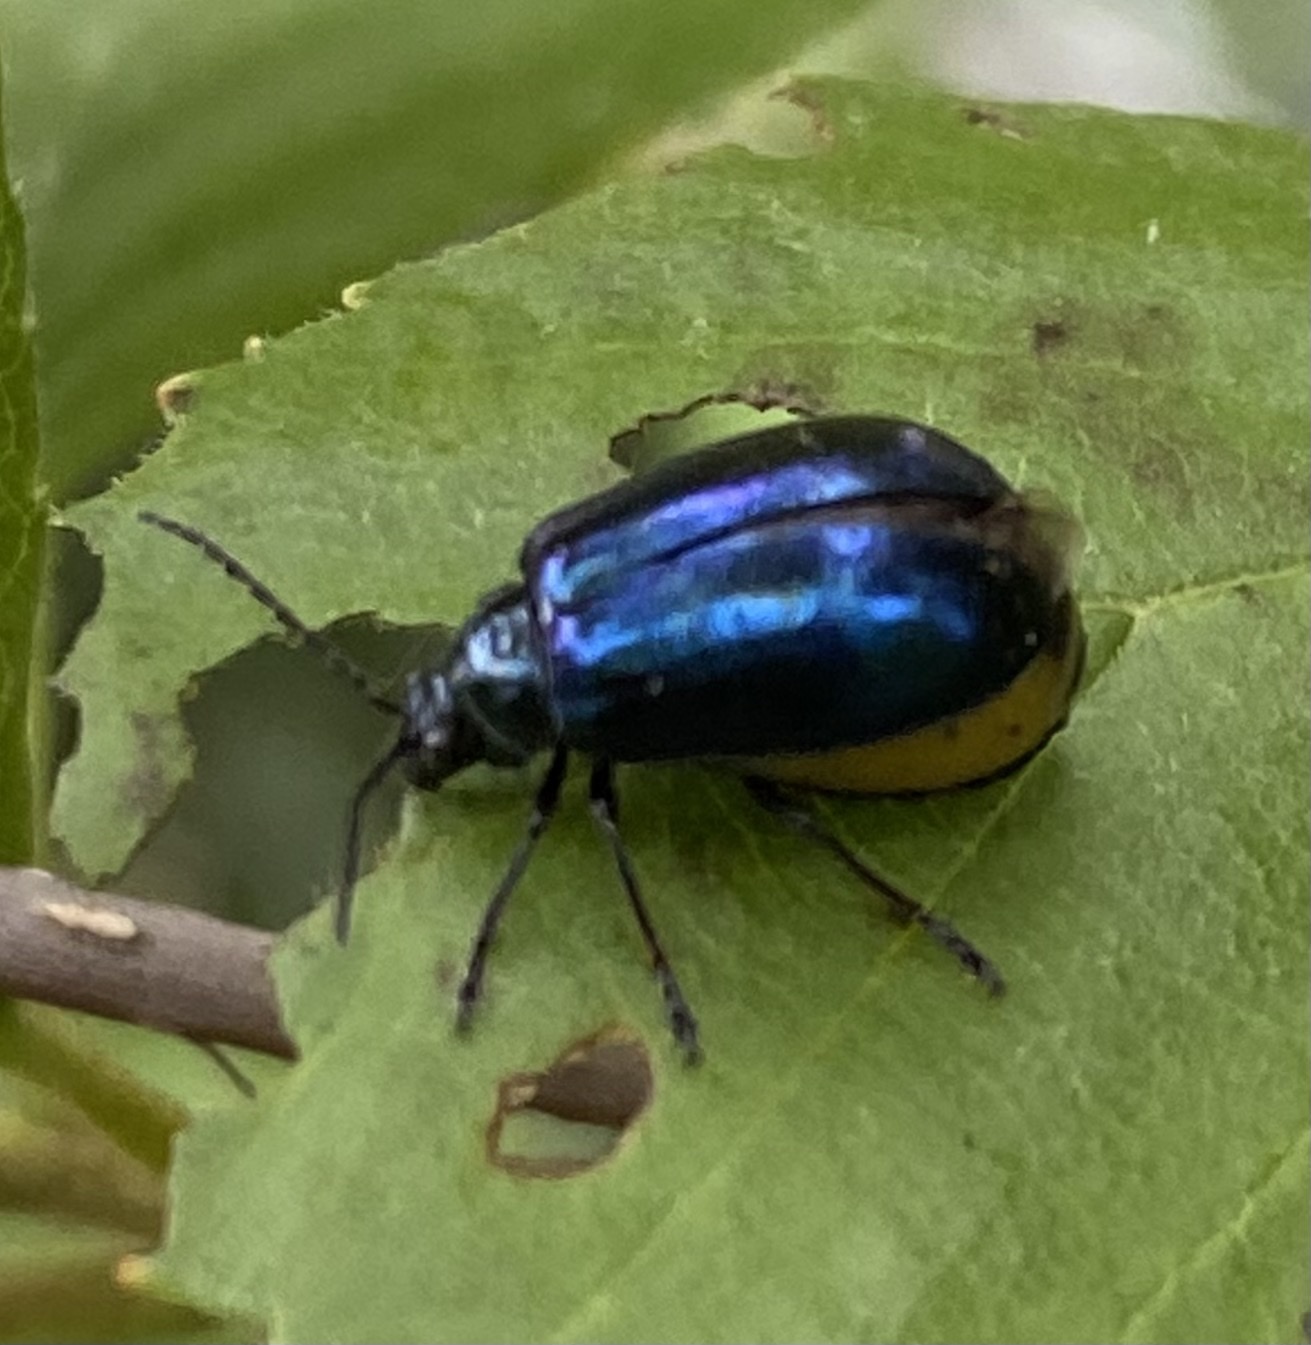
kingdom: Animalia
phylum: Arthropoda
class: Insecta
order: Coleoptera
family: Chrysomelidae
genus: Agelastica
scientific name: Agelastica alni
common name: Alder leaf beetle
